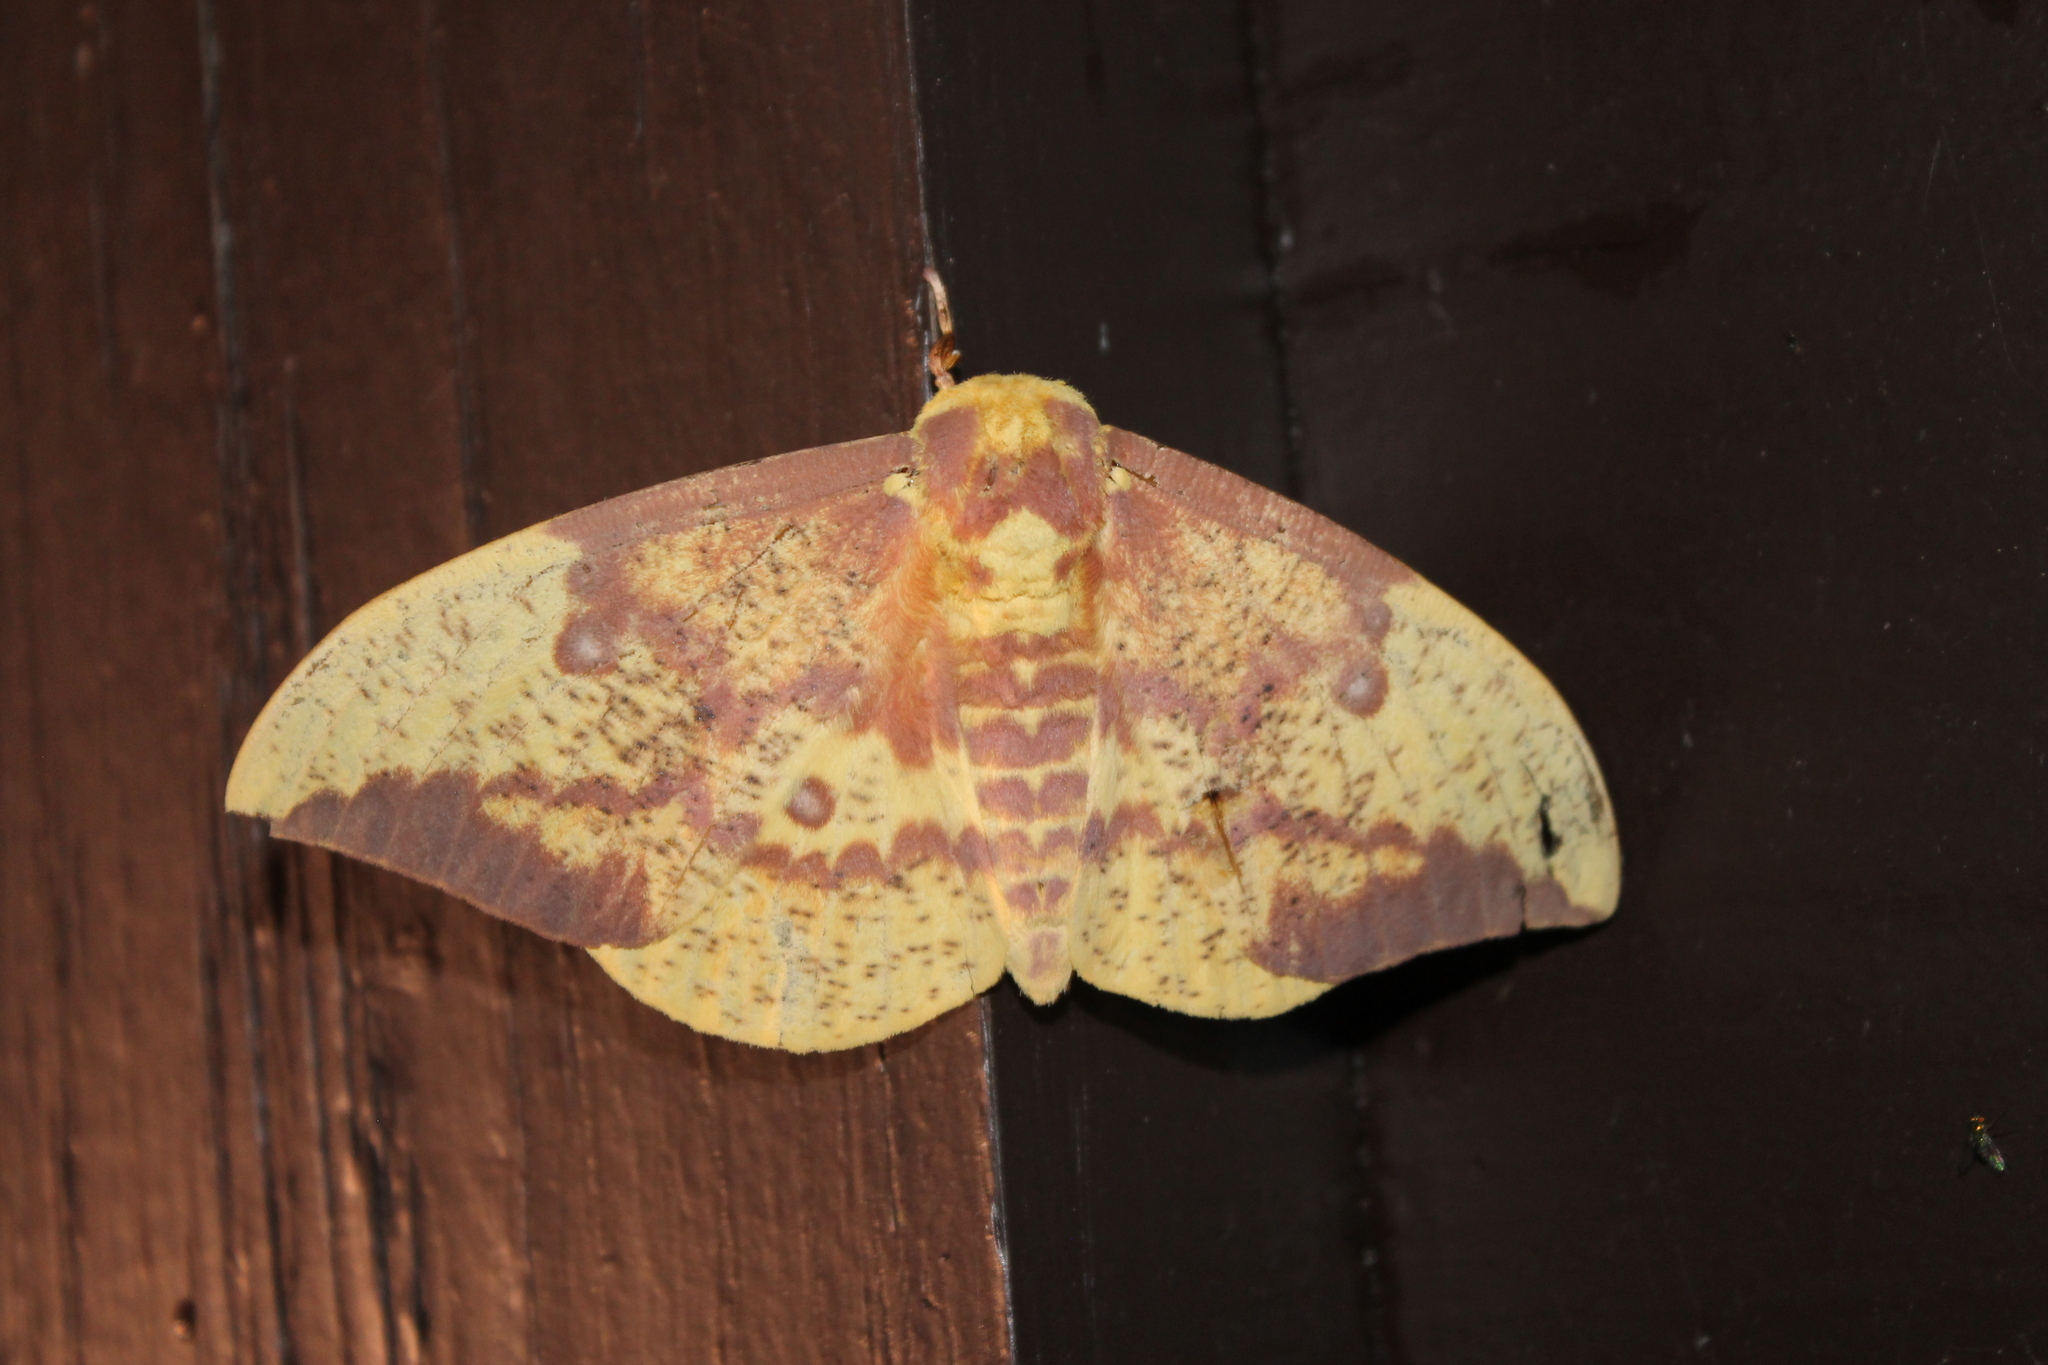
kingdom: Animalia
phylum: Arthropoda
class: Insecta
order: Lepidoptera
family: Saturniidae
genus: Eacles
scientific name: Eacles imperialis
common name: Imperial moth
